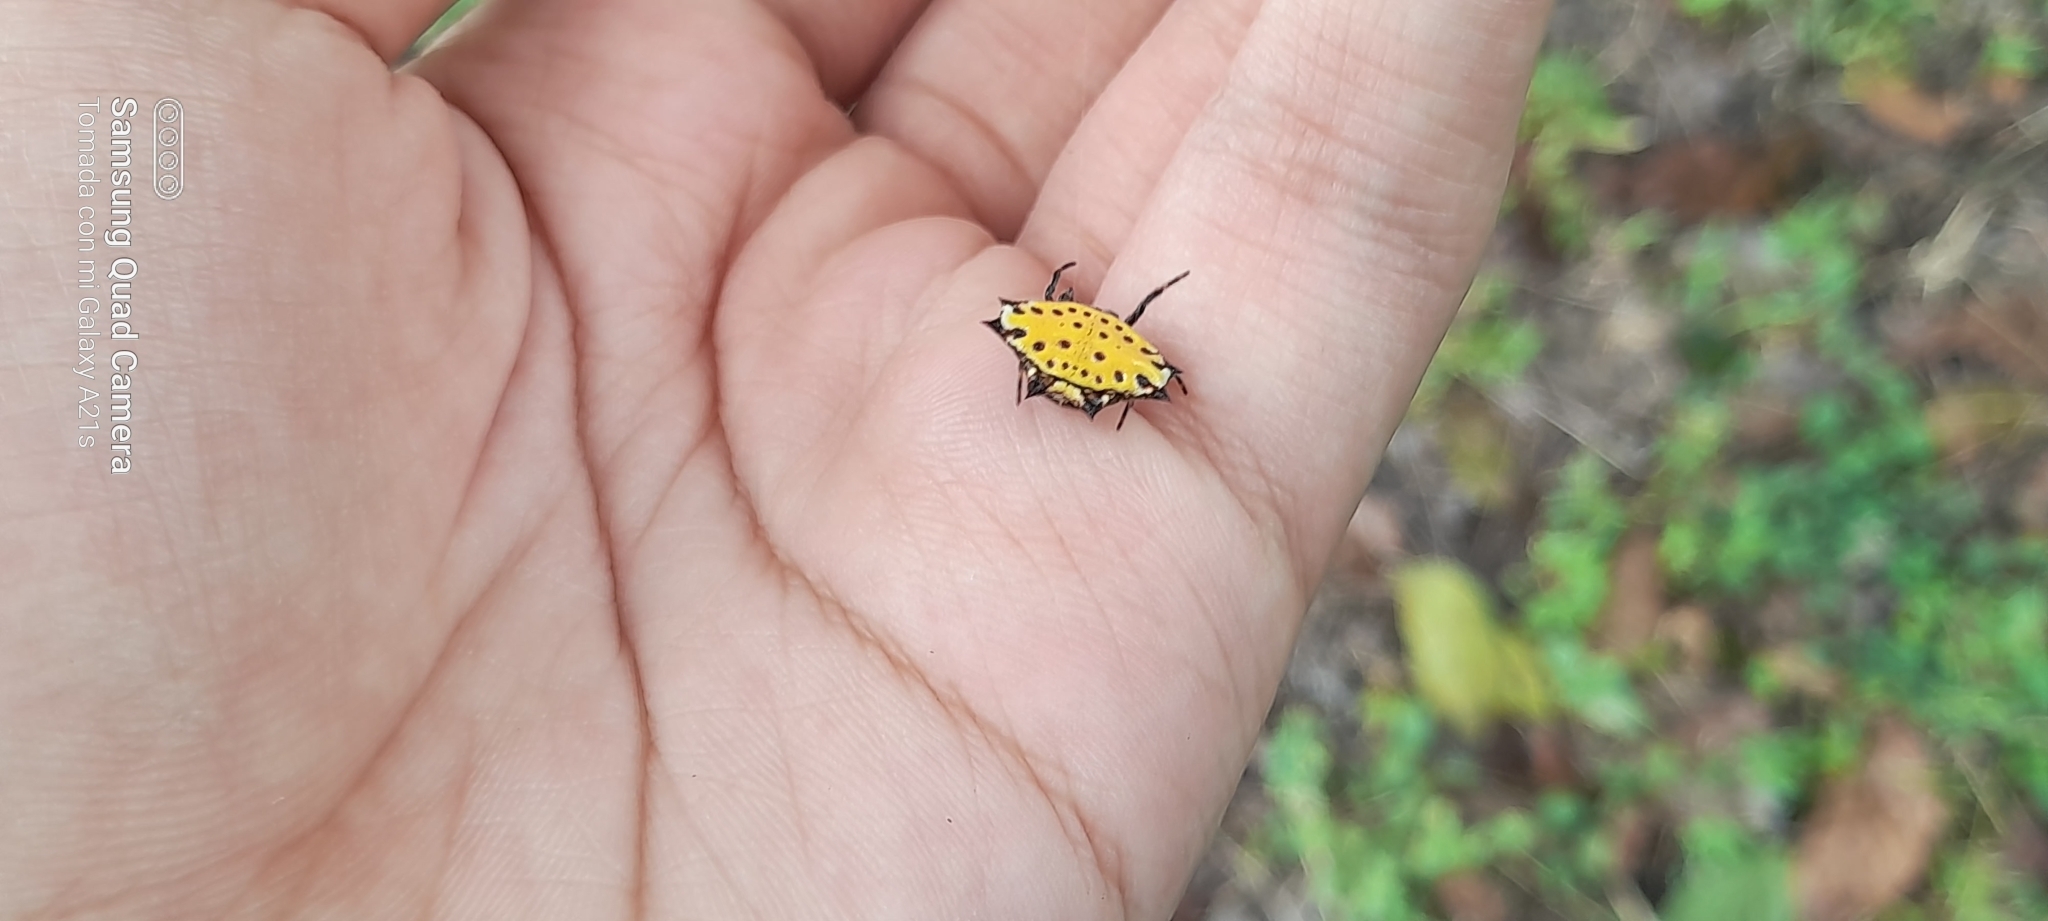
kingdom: Animalia
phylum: Arthropoda
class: Arachnida
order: Araneae
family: Araneidae
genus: Gasteracantha
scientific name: Gasteracantha cancriformis
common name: Orb weavers
